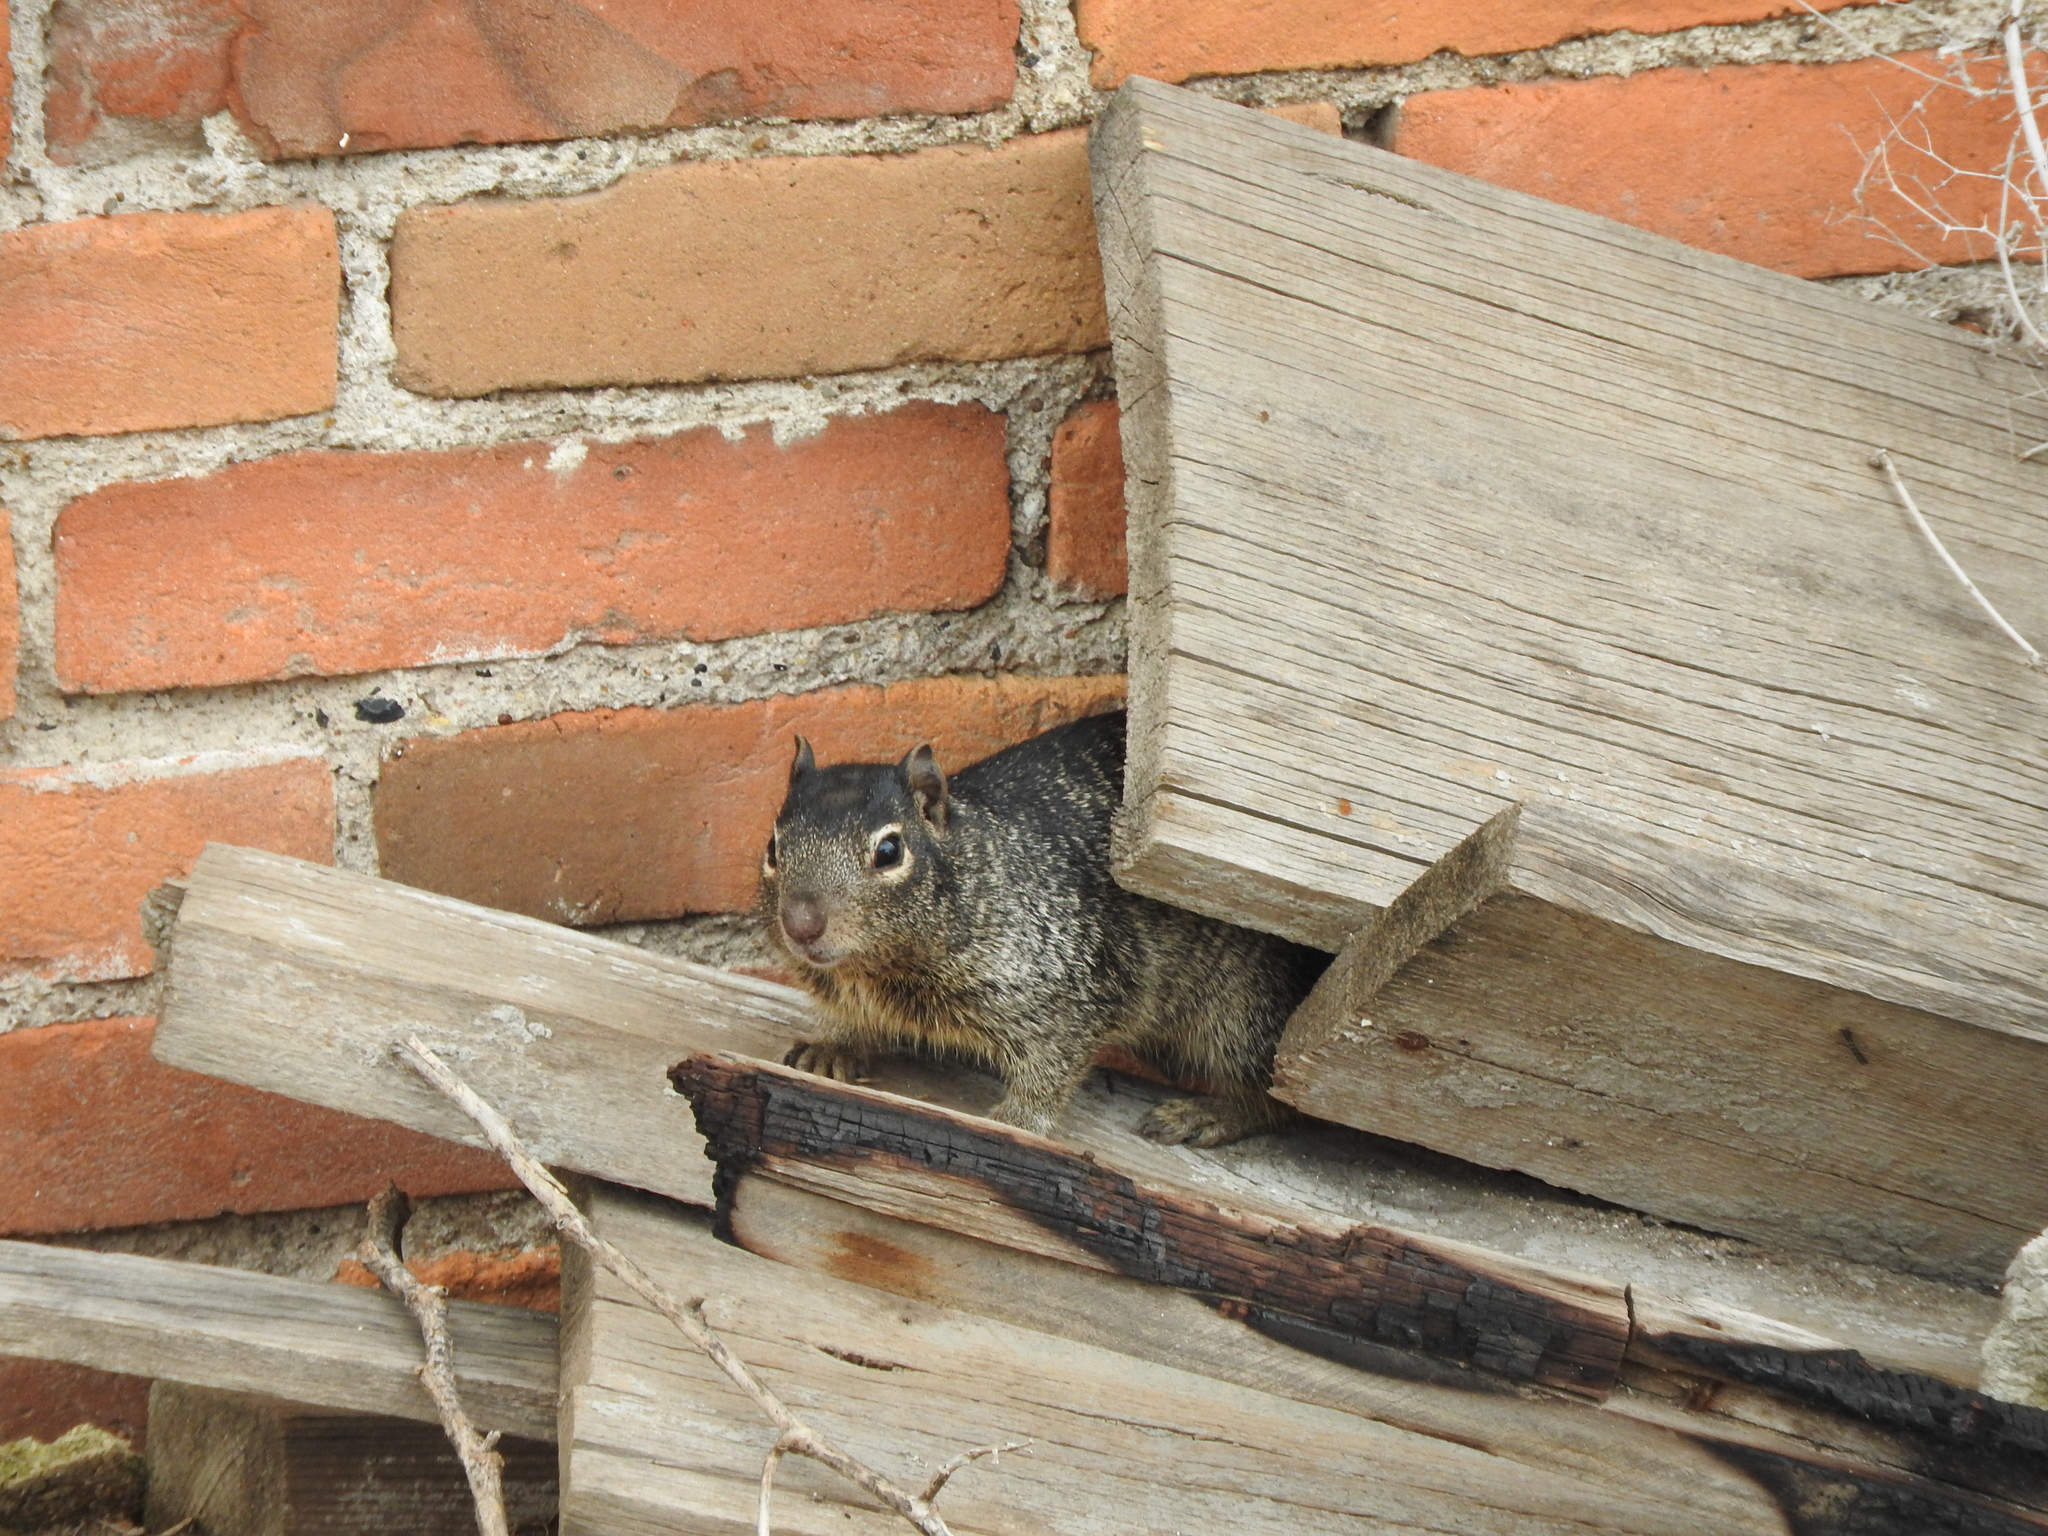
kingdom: Animalia
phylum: Chordata
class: Mammalia
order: Rodentia
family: Sciuridae
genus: Otospermophilus
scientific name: Otospermophilus variegatus
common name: Rock squirrel
